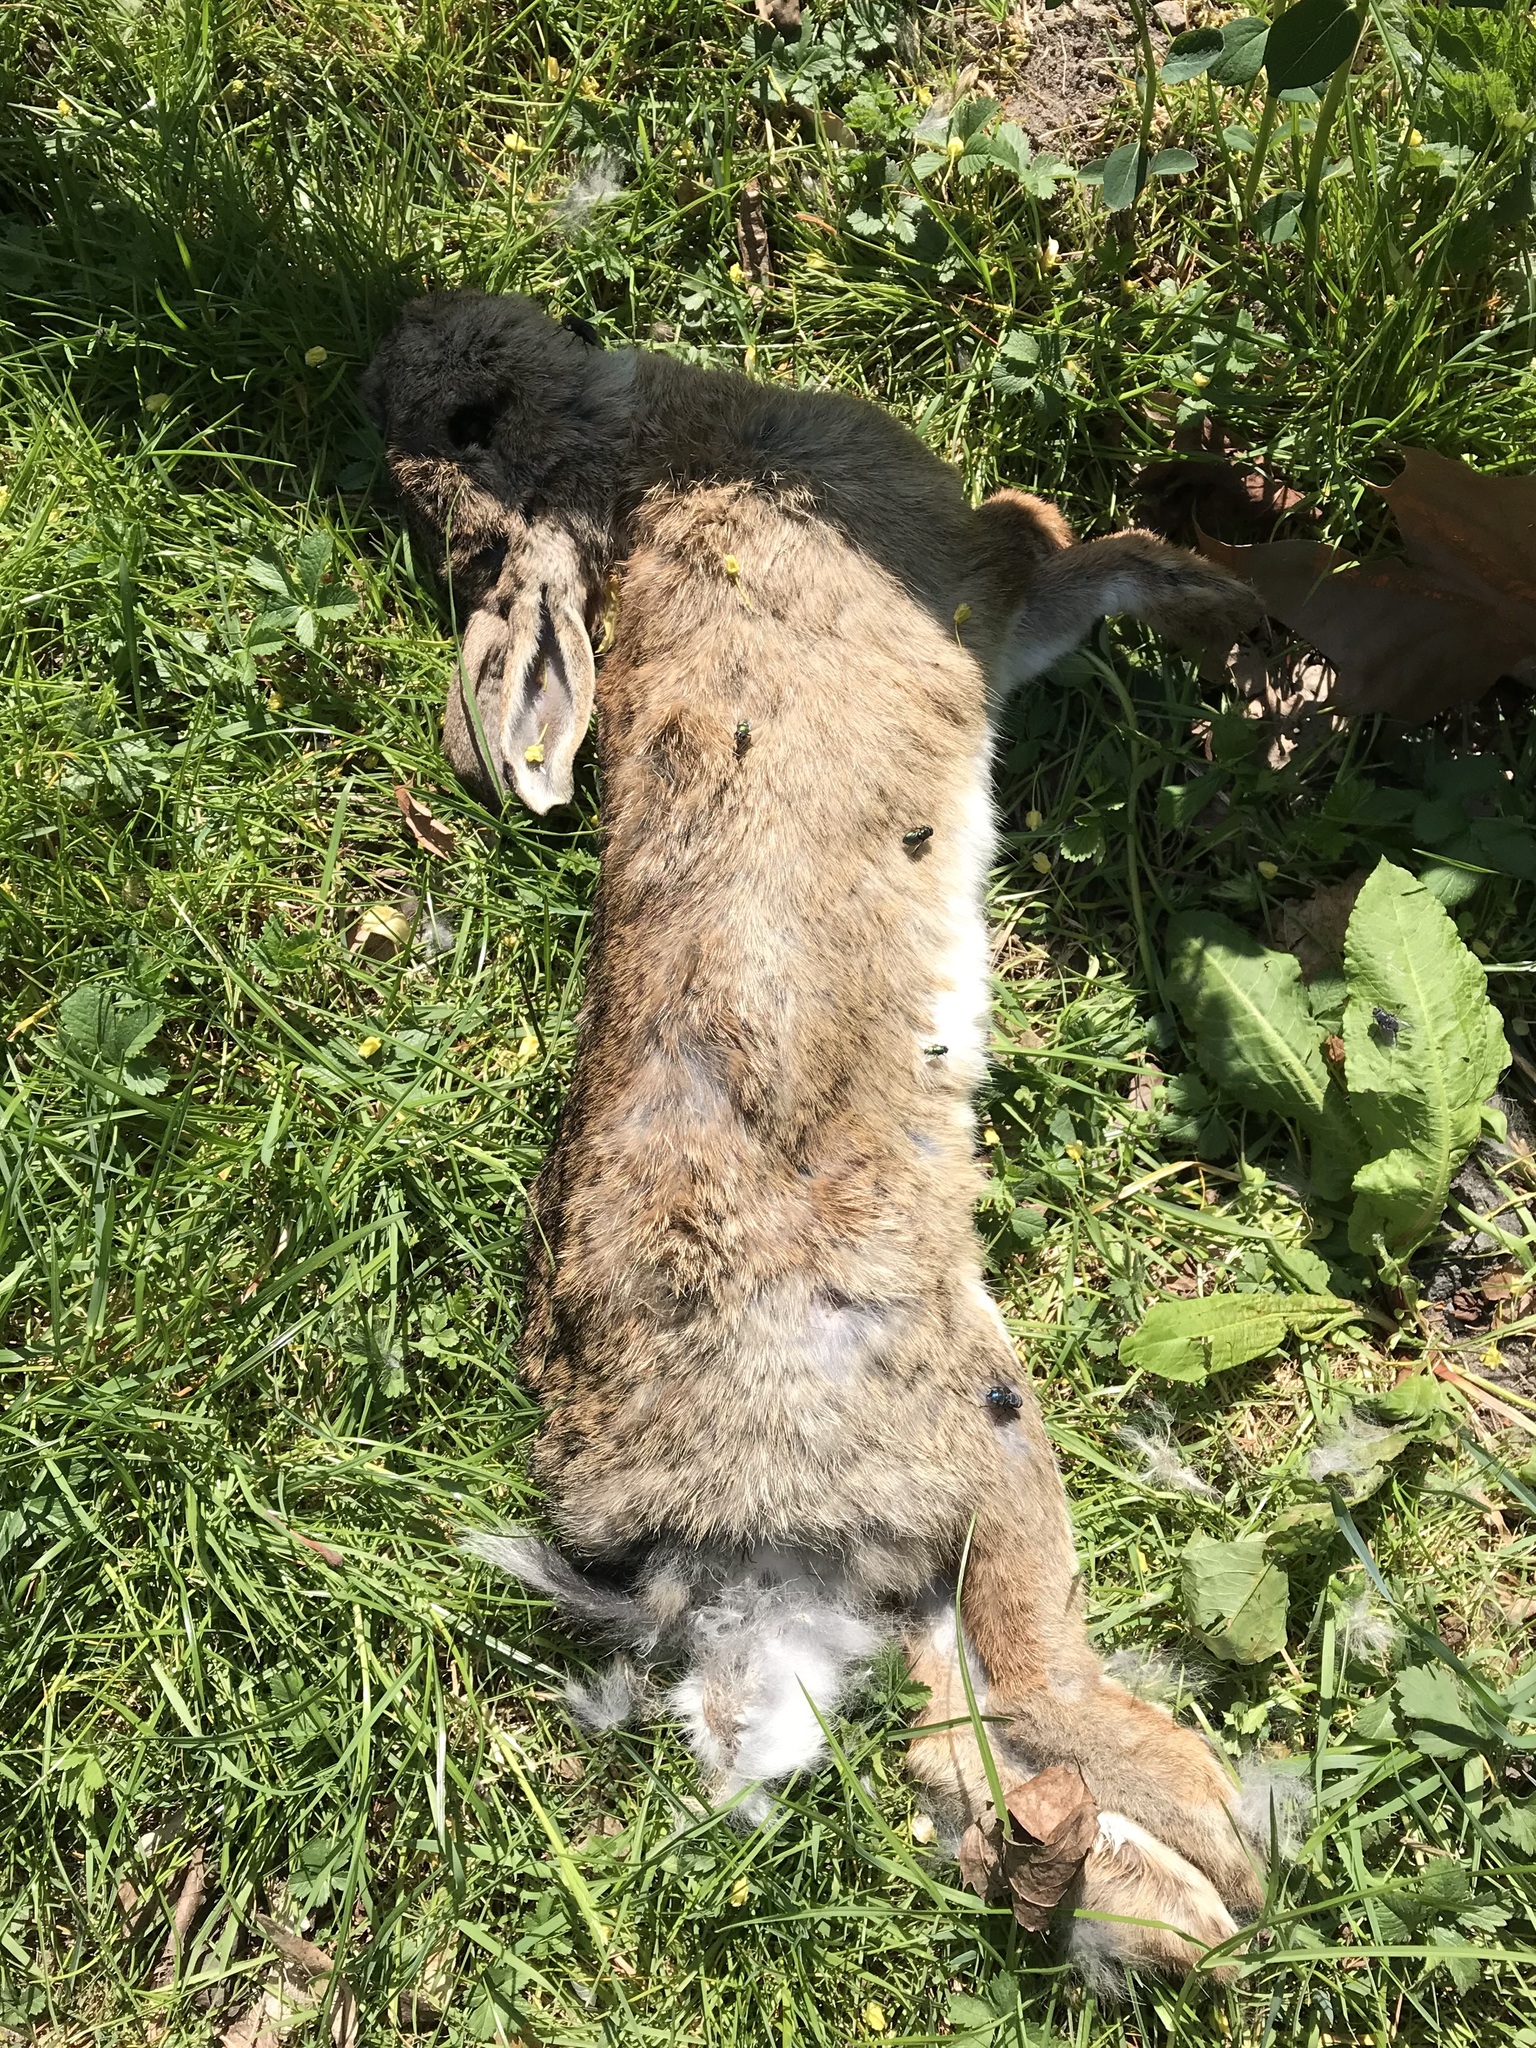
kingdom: Animalia
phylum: Chordata
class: Mammalia
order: Lagomorpha
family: Leporidae
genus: Oryctolagus
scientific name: Oryctolagus cuniculus
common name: European rabbit
